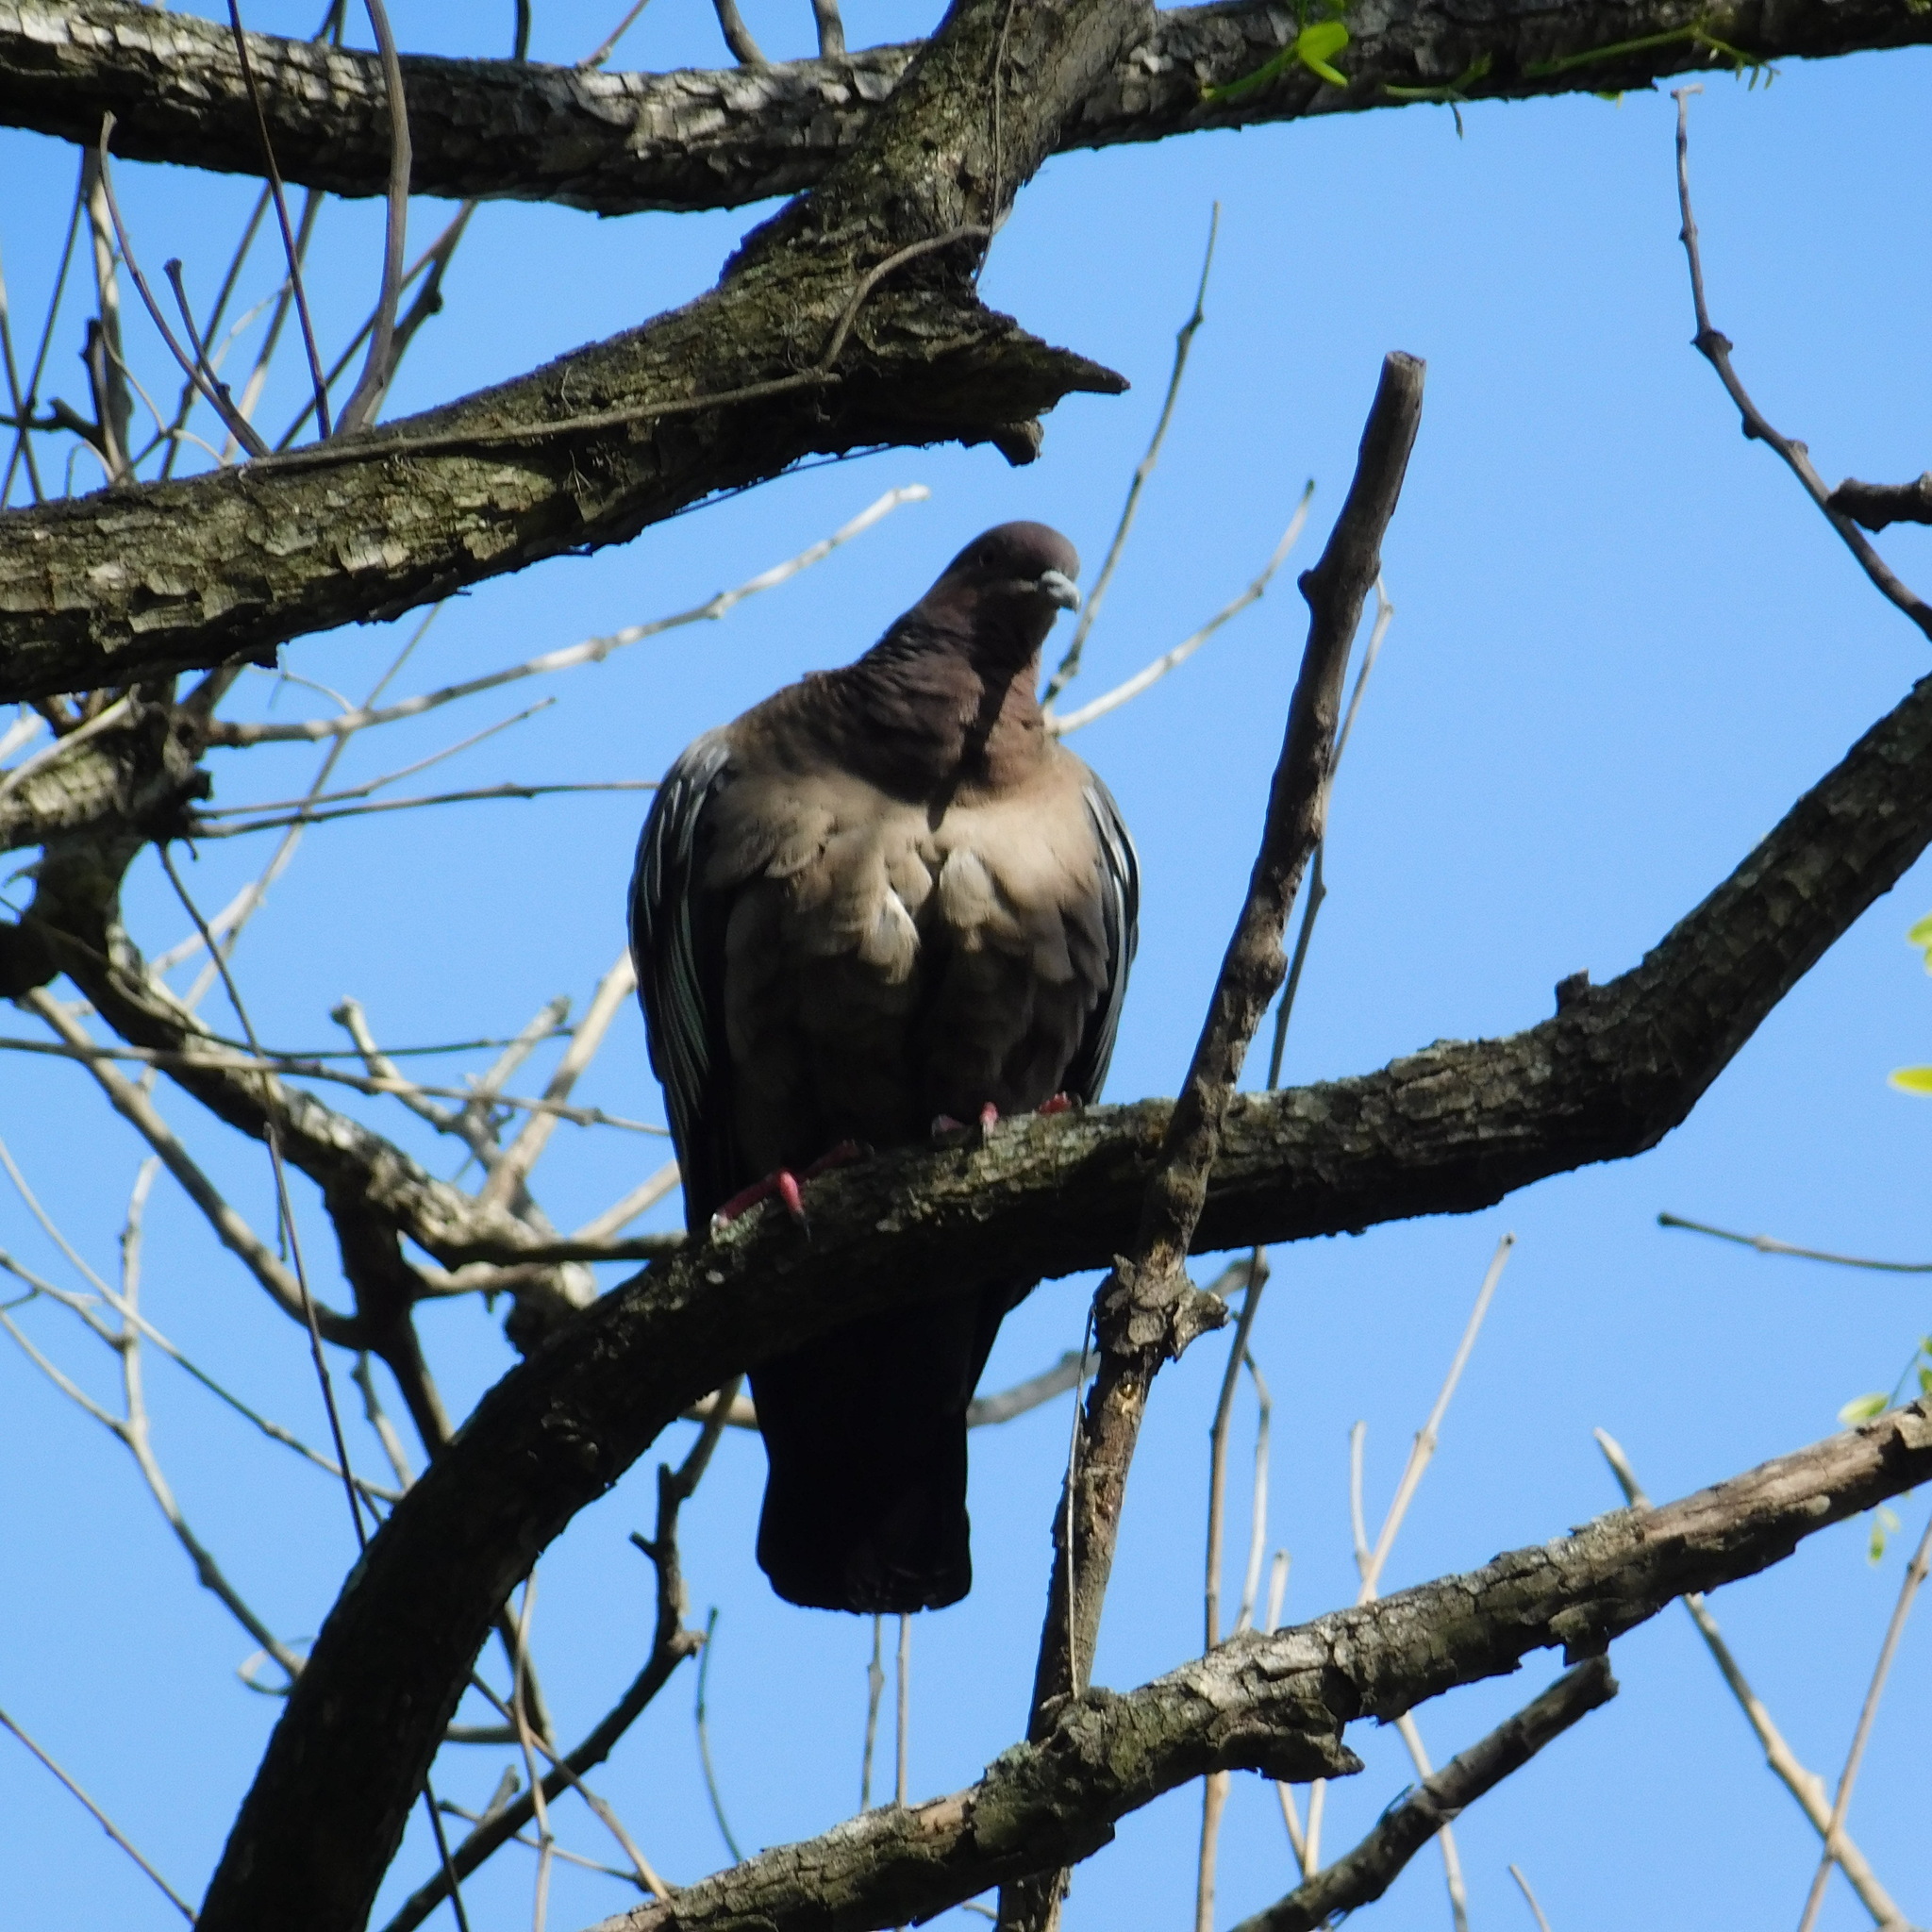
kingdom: Animalia
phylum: Chordata
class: Aves
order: Columbiformes
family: Columbidae
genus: Patagioenas
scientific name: Patagioenas picazuro
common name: Picazuro pigeon
